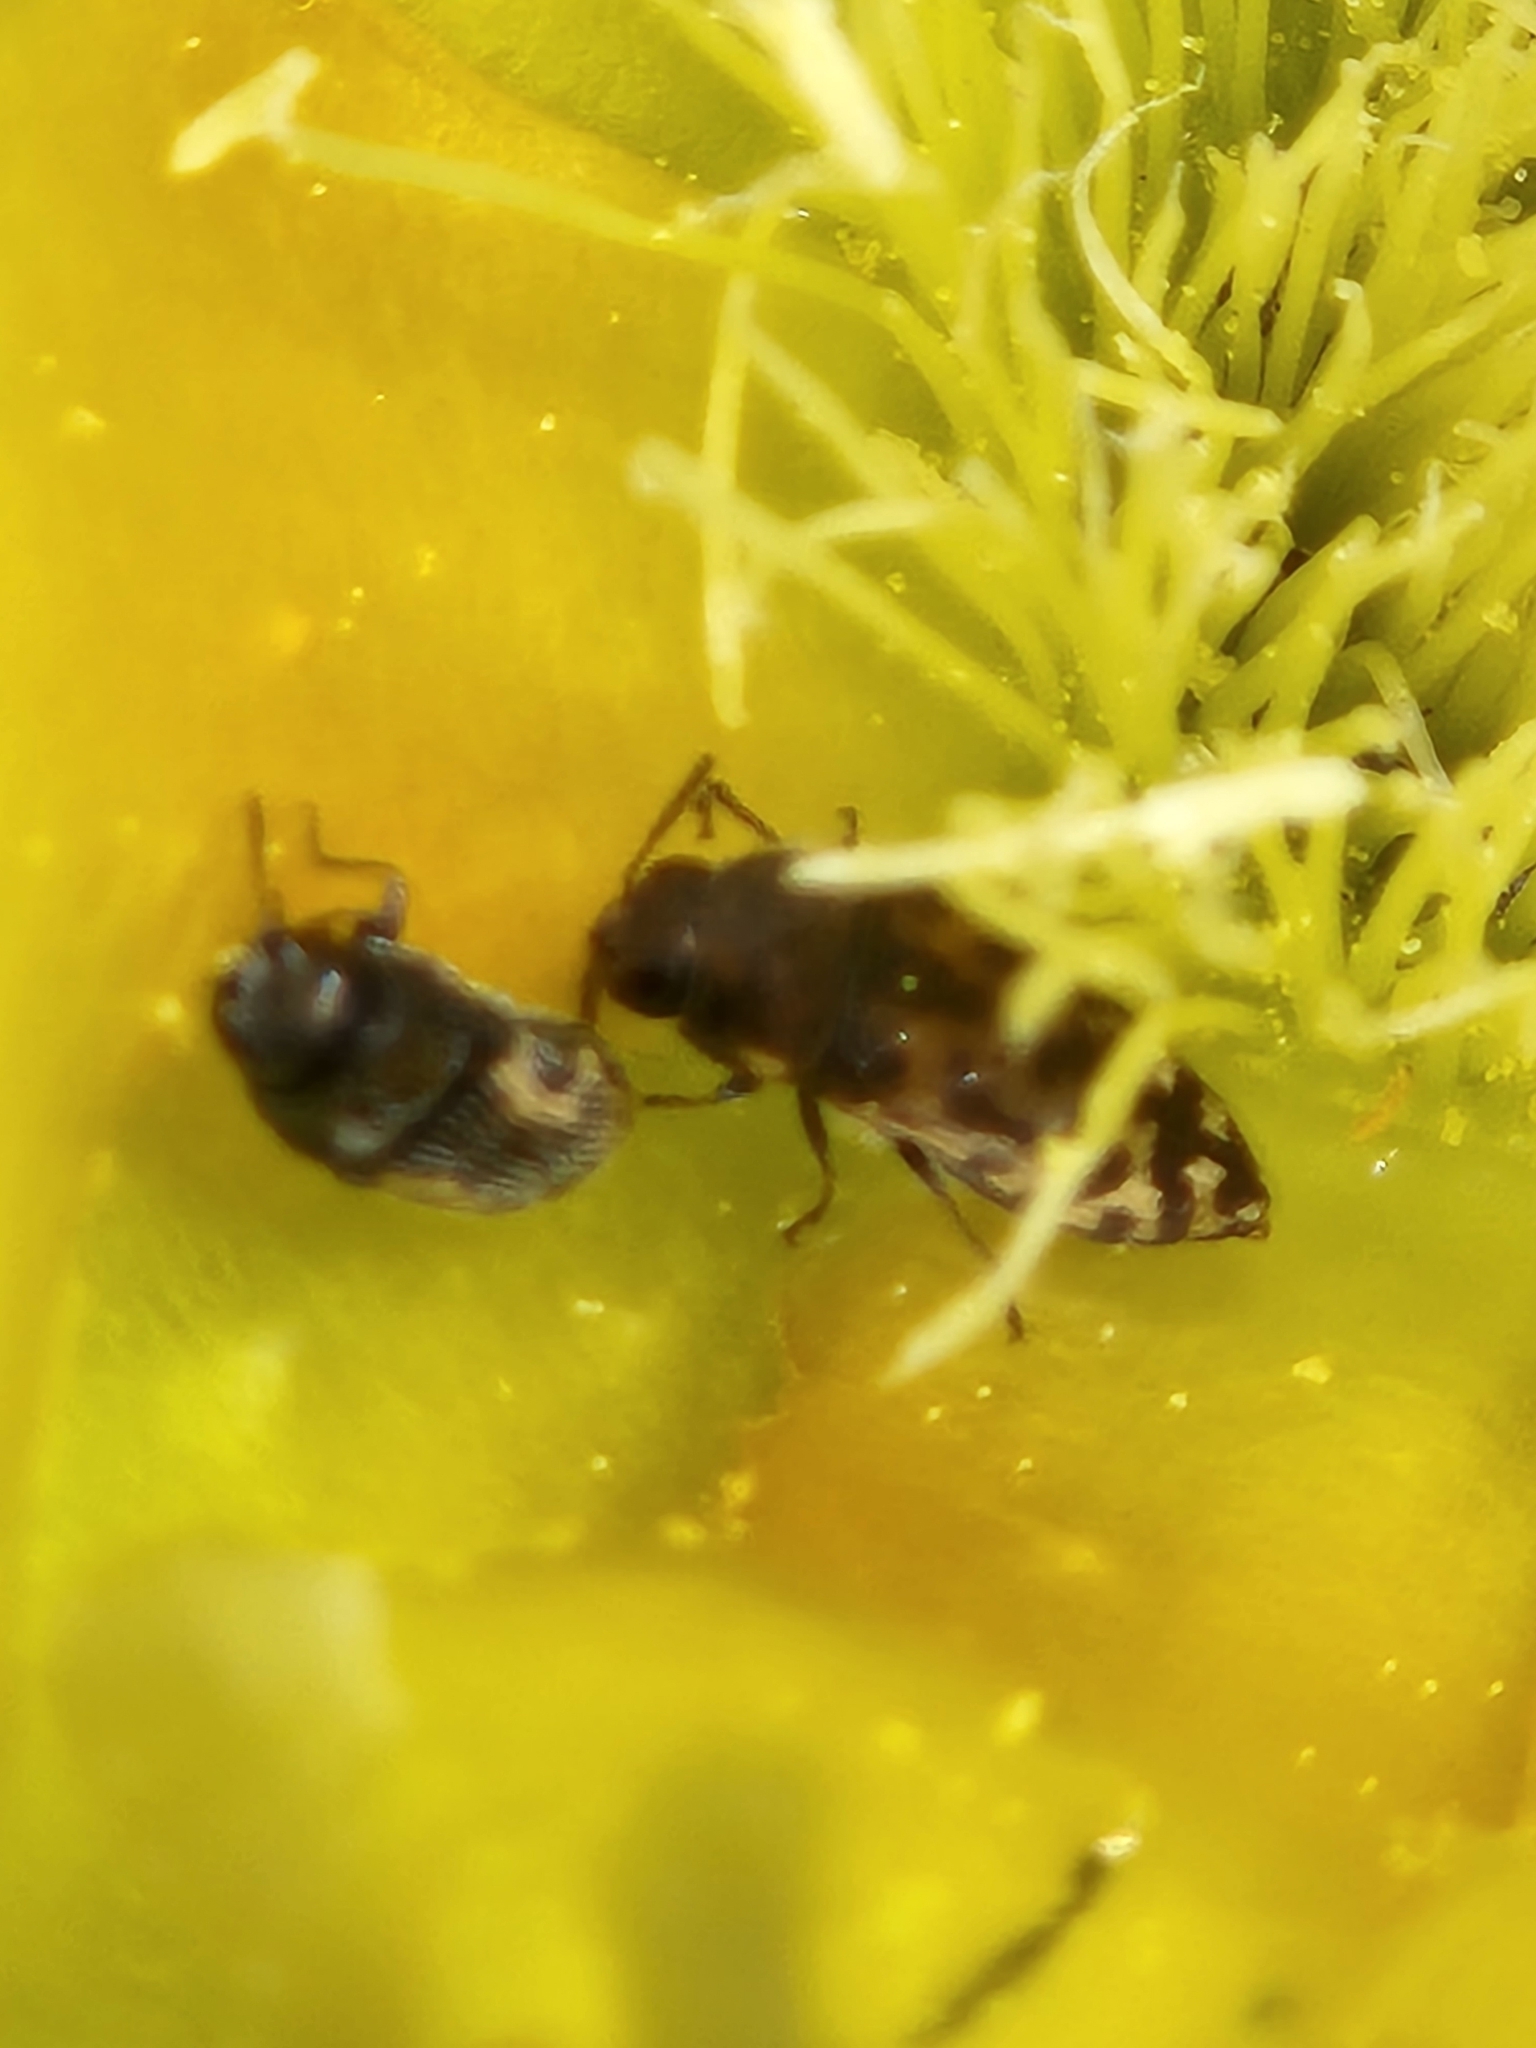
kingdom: Animalia
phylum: Arthropoda
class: Insecta
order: Coleoptera
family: Buprestidae
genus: Acmaeodera
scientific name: Acmaeodera neglecta
